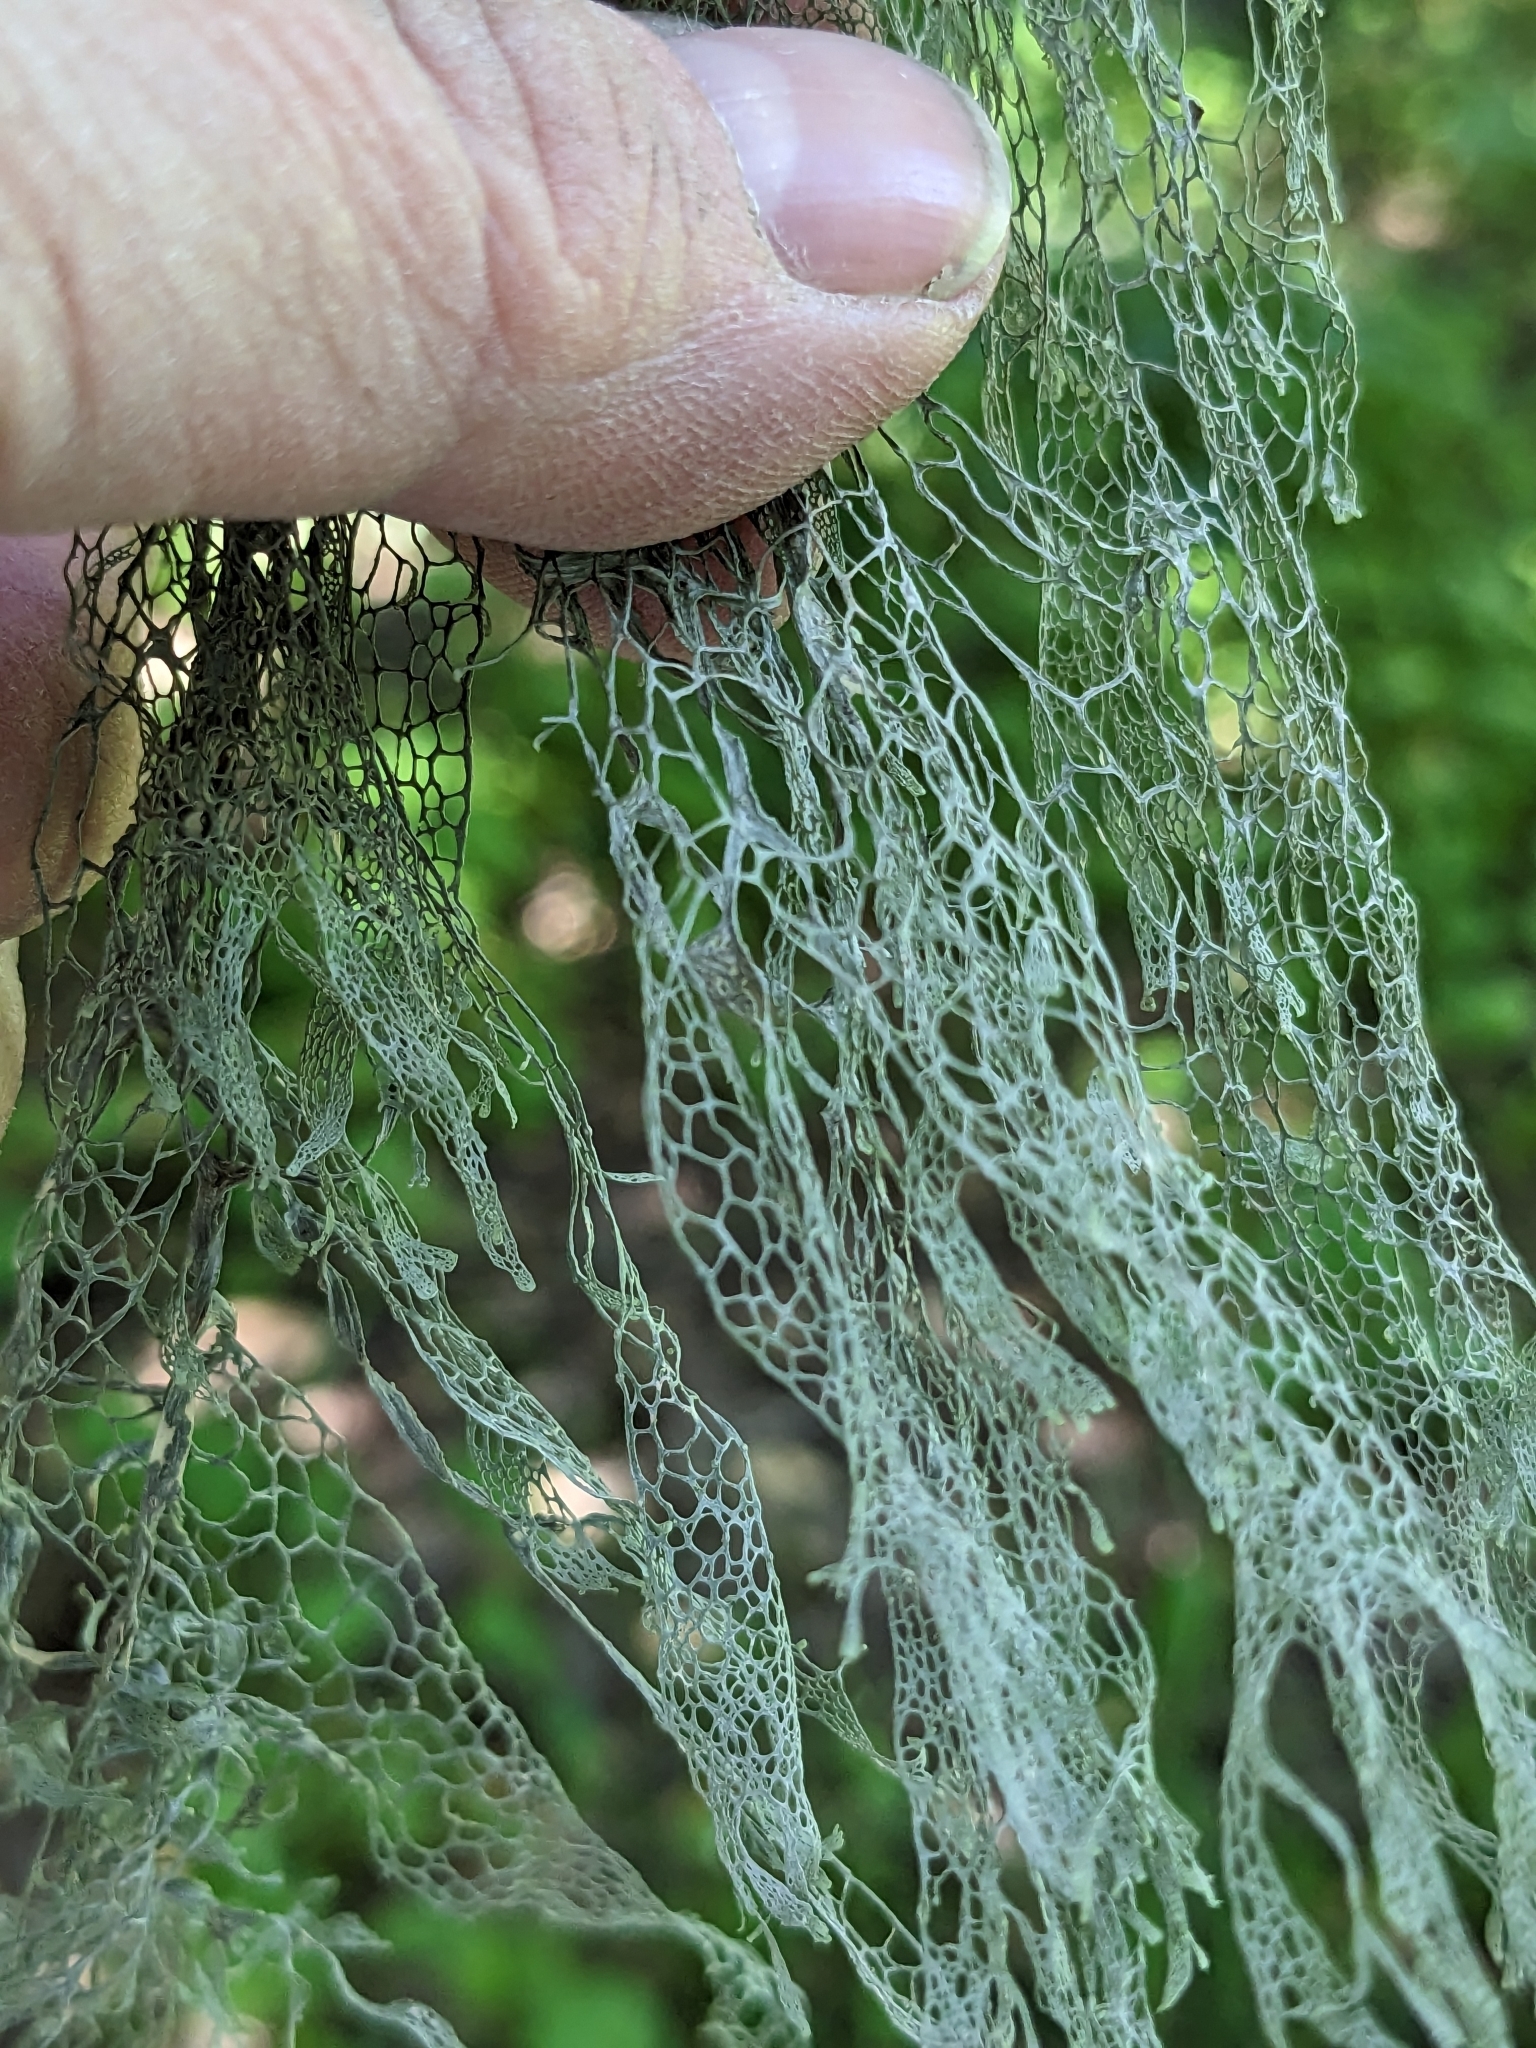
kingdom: Fungi
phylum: Ascomycota
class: Lecanoromycetes
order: Lecanorales
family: Ramalinaceae
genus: Ramalina
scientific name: Ramalina menziesii
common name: Lace lichen
